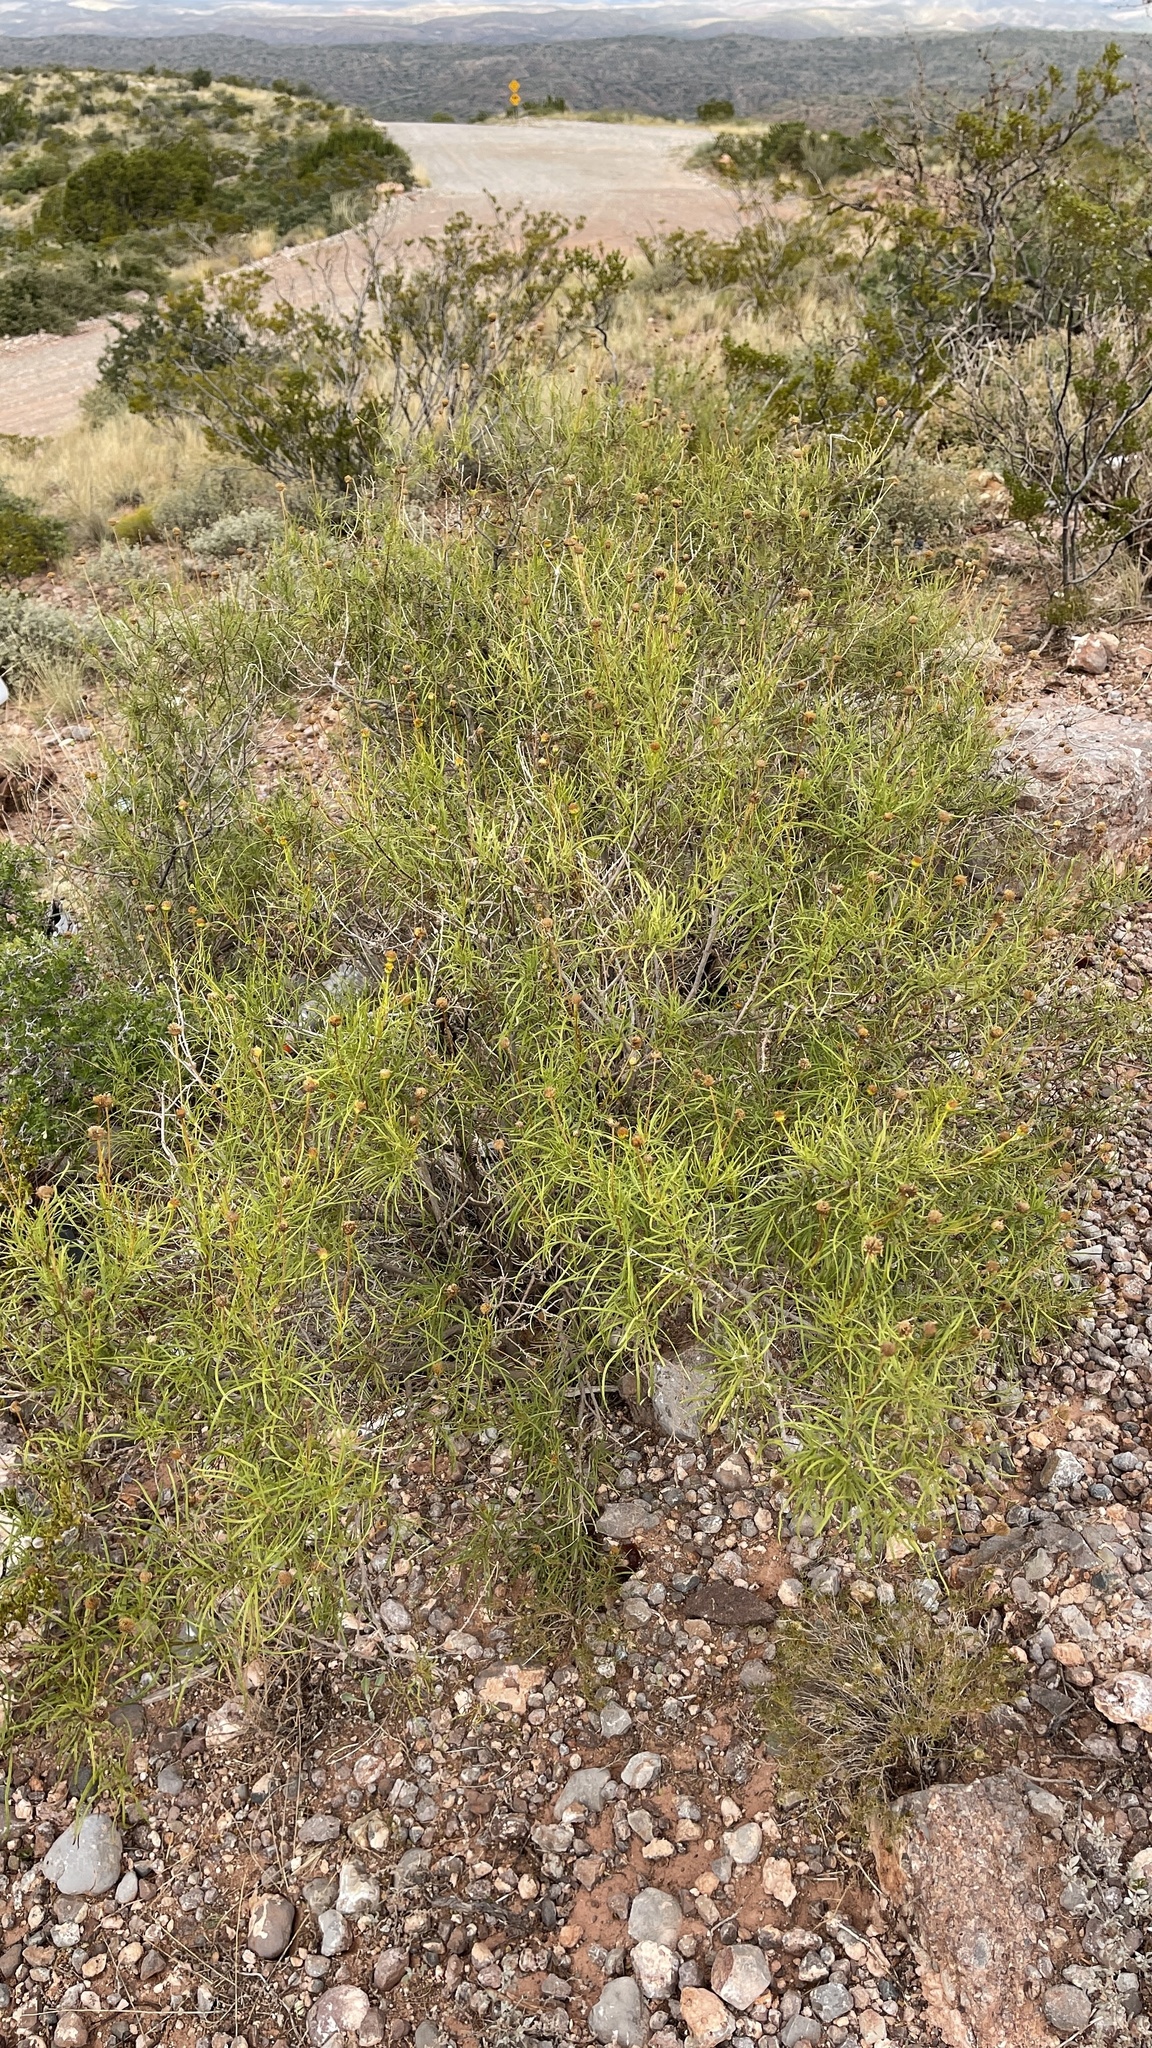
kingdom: Plantae
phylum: Tracheophyta
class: Magnoliopsida
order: Asterales
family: Asteraceae
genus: Sidneya
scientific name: Sidneya tenuifolia
